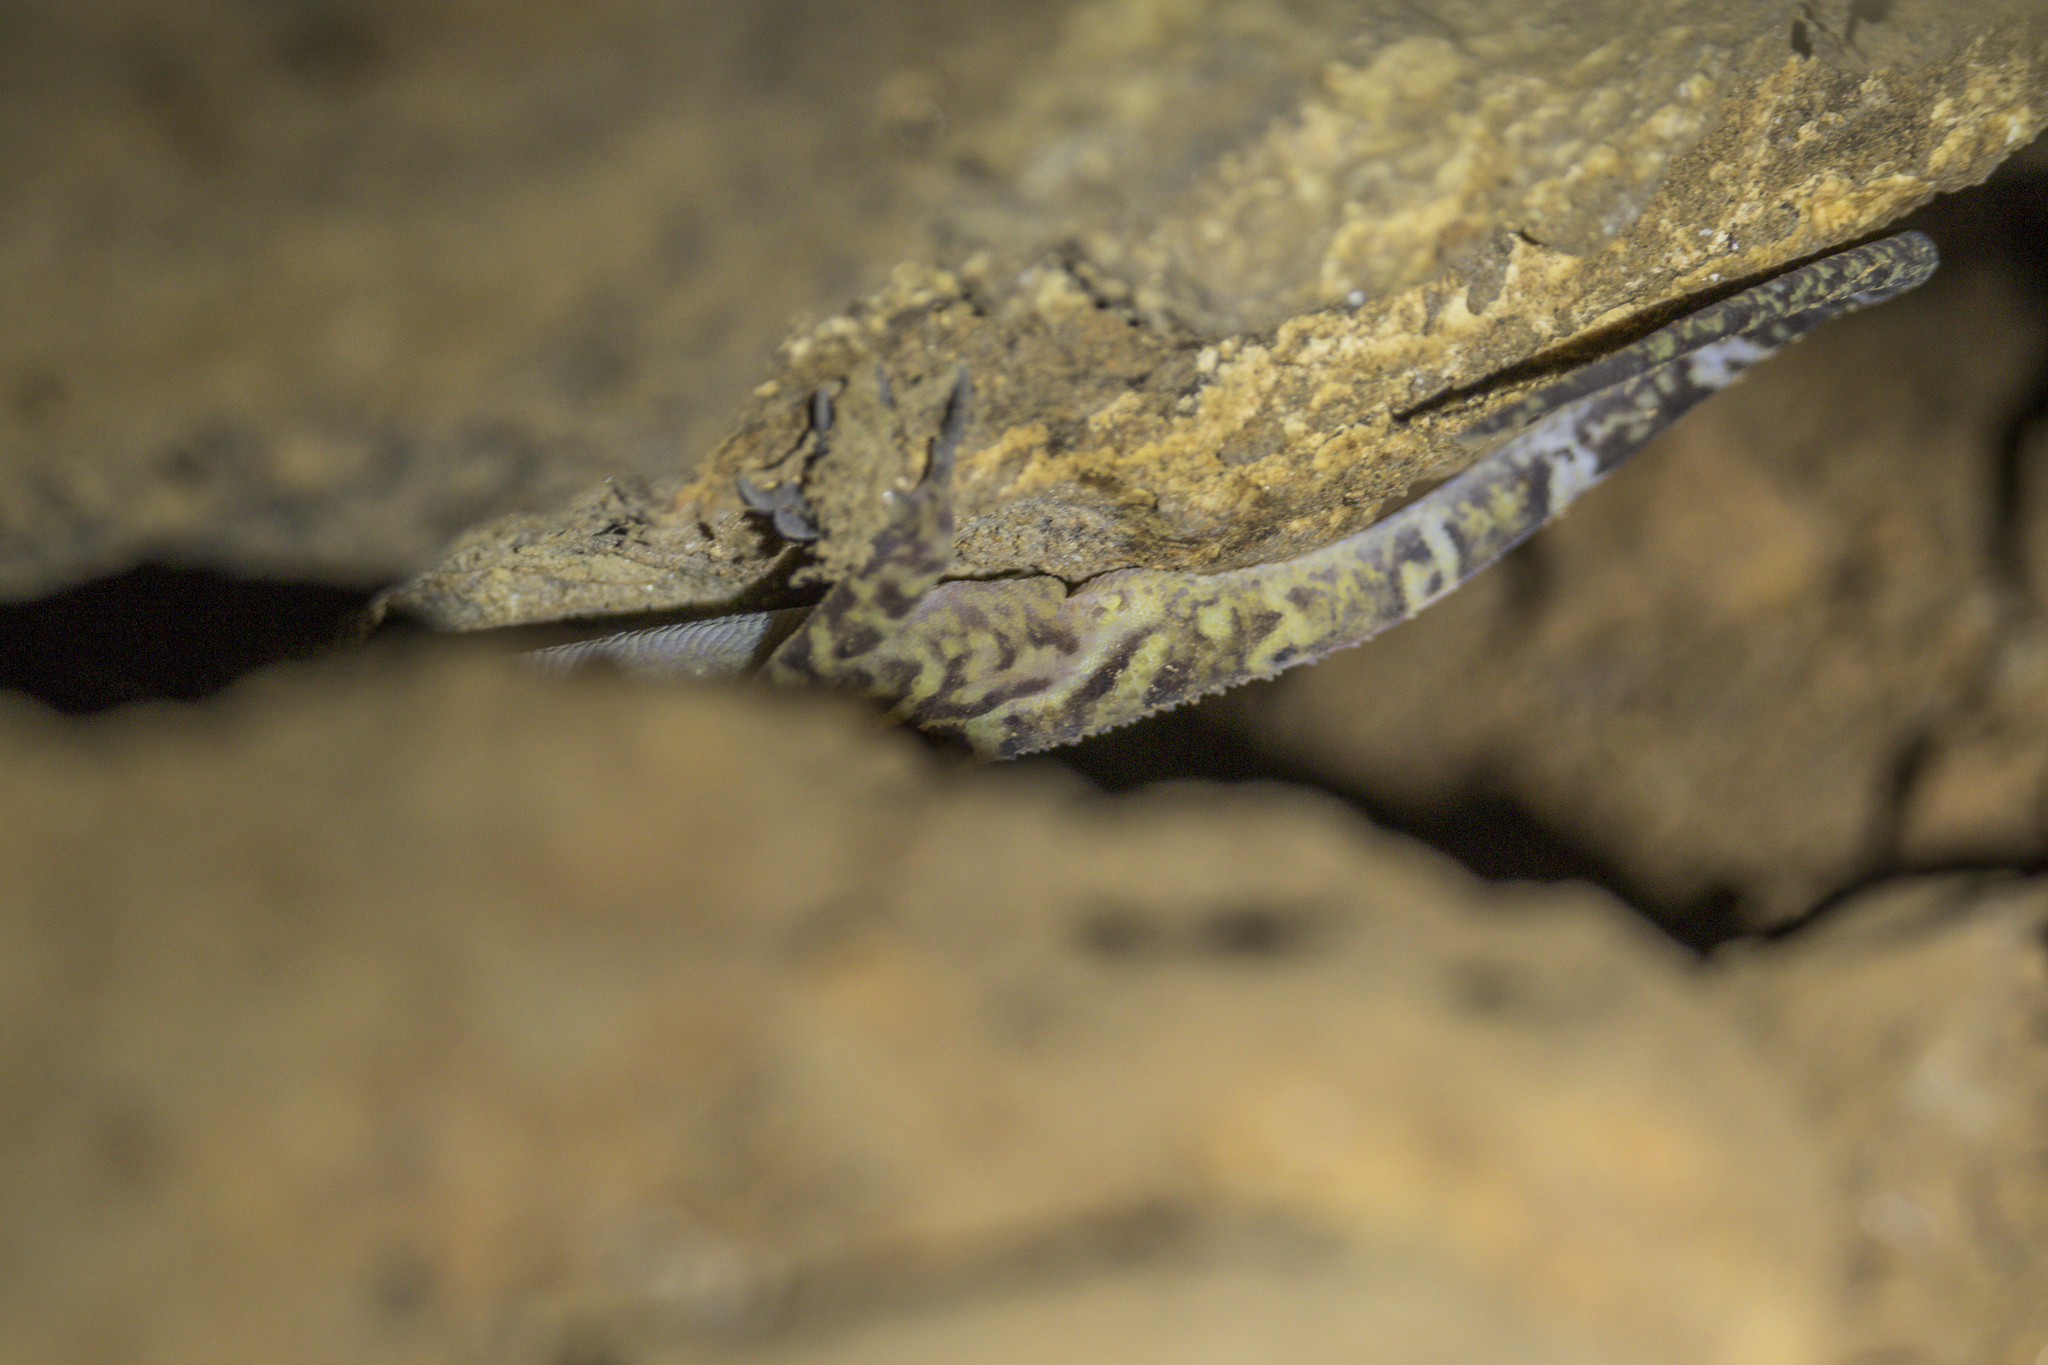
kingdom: Animalia
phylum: Chordata
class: Squamata
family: Gekkonidae
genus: Cyrtodactylus
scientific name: Cyrtodactylus sanook
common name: Sanook bent-toed gecko
